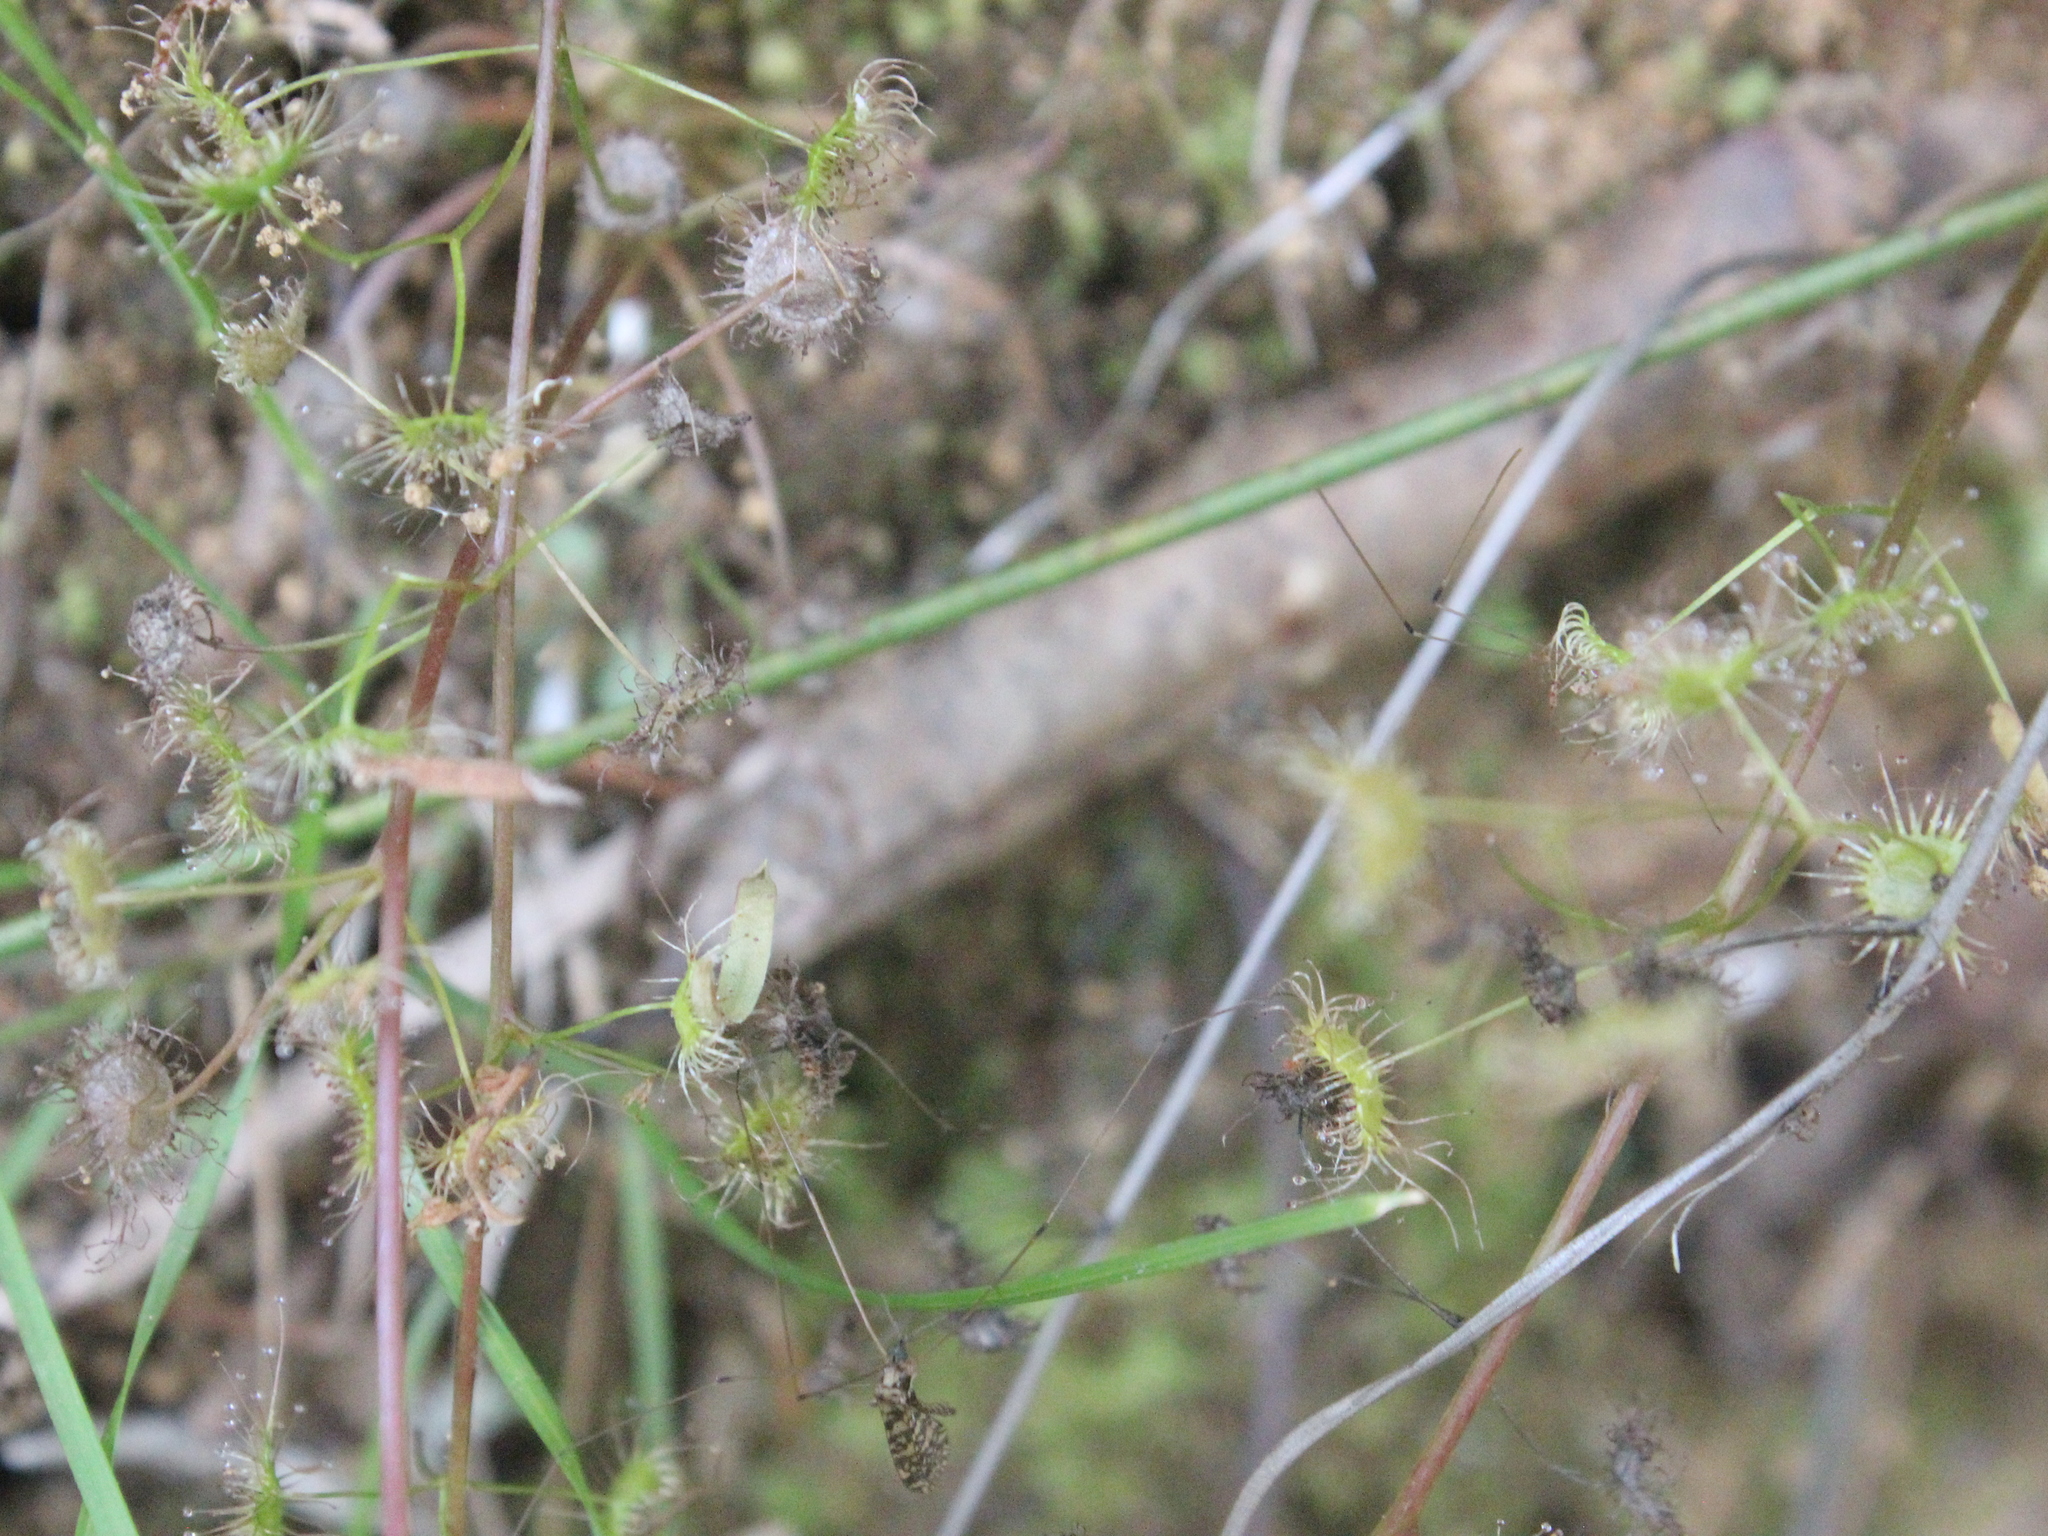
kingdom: Plantae
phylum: Tracheophyta
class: Magnoliopsida
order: Caryophyllales
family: Droseraceae
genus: Drosera
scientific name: Drosera peltata
